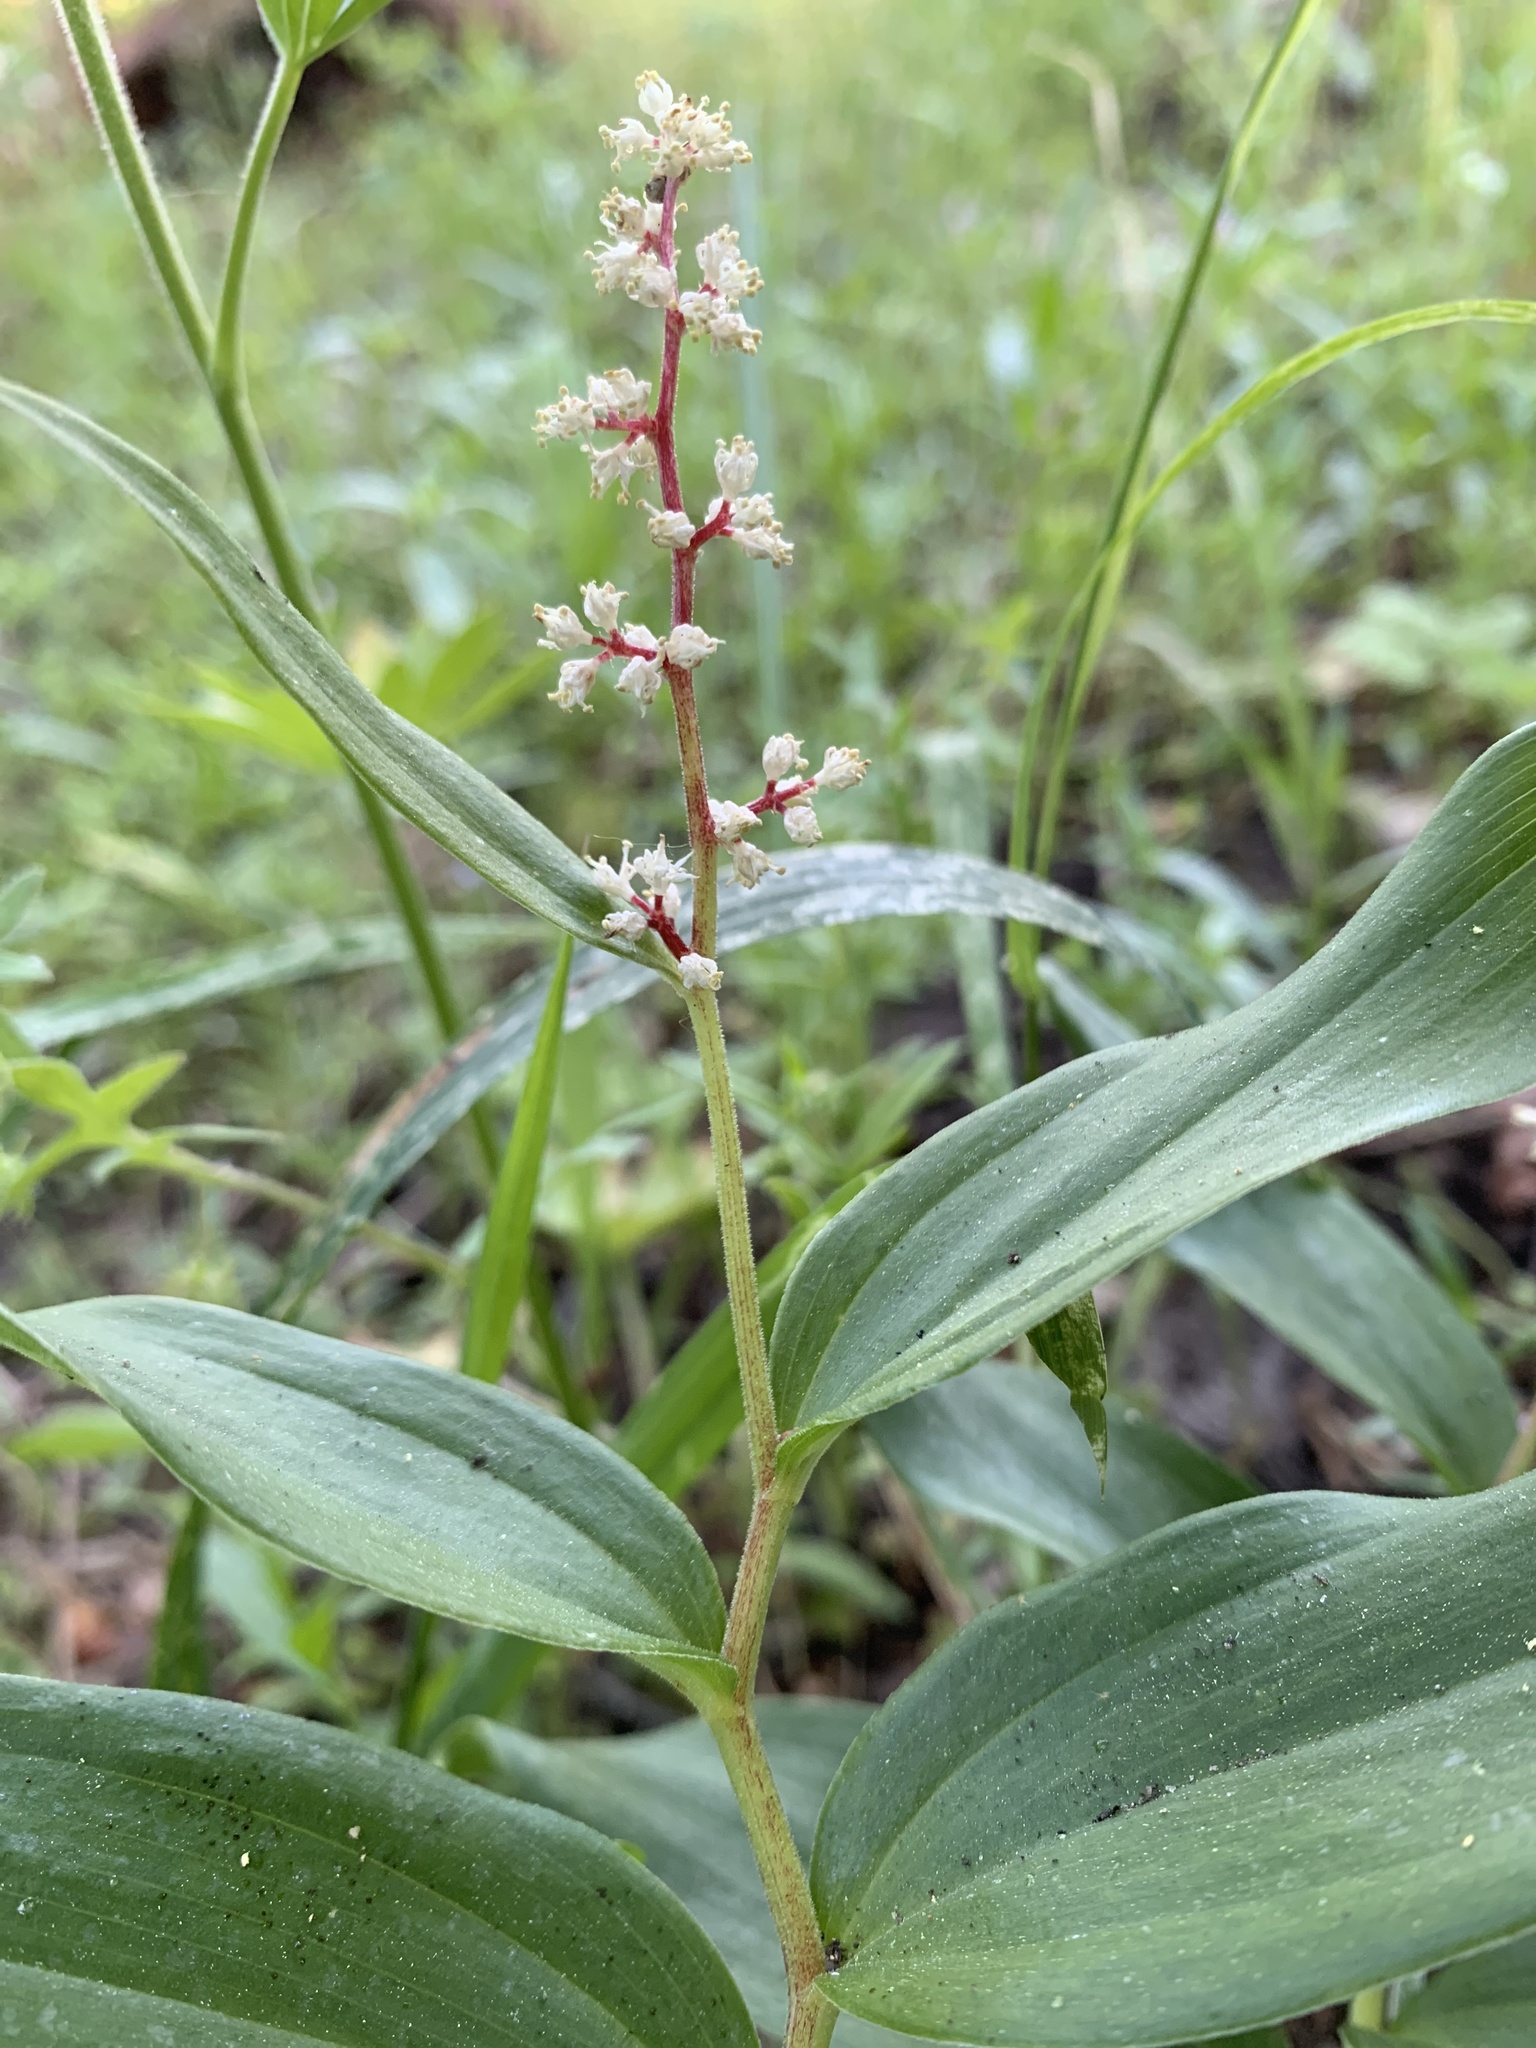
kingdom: Plantae
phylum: Tracheophyta
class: Liliopsida
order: Asparagales
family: Asparagaceae
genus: Maianthemum
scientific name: Maianthemum racemosum
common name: False spikenard
